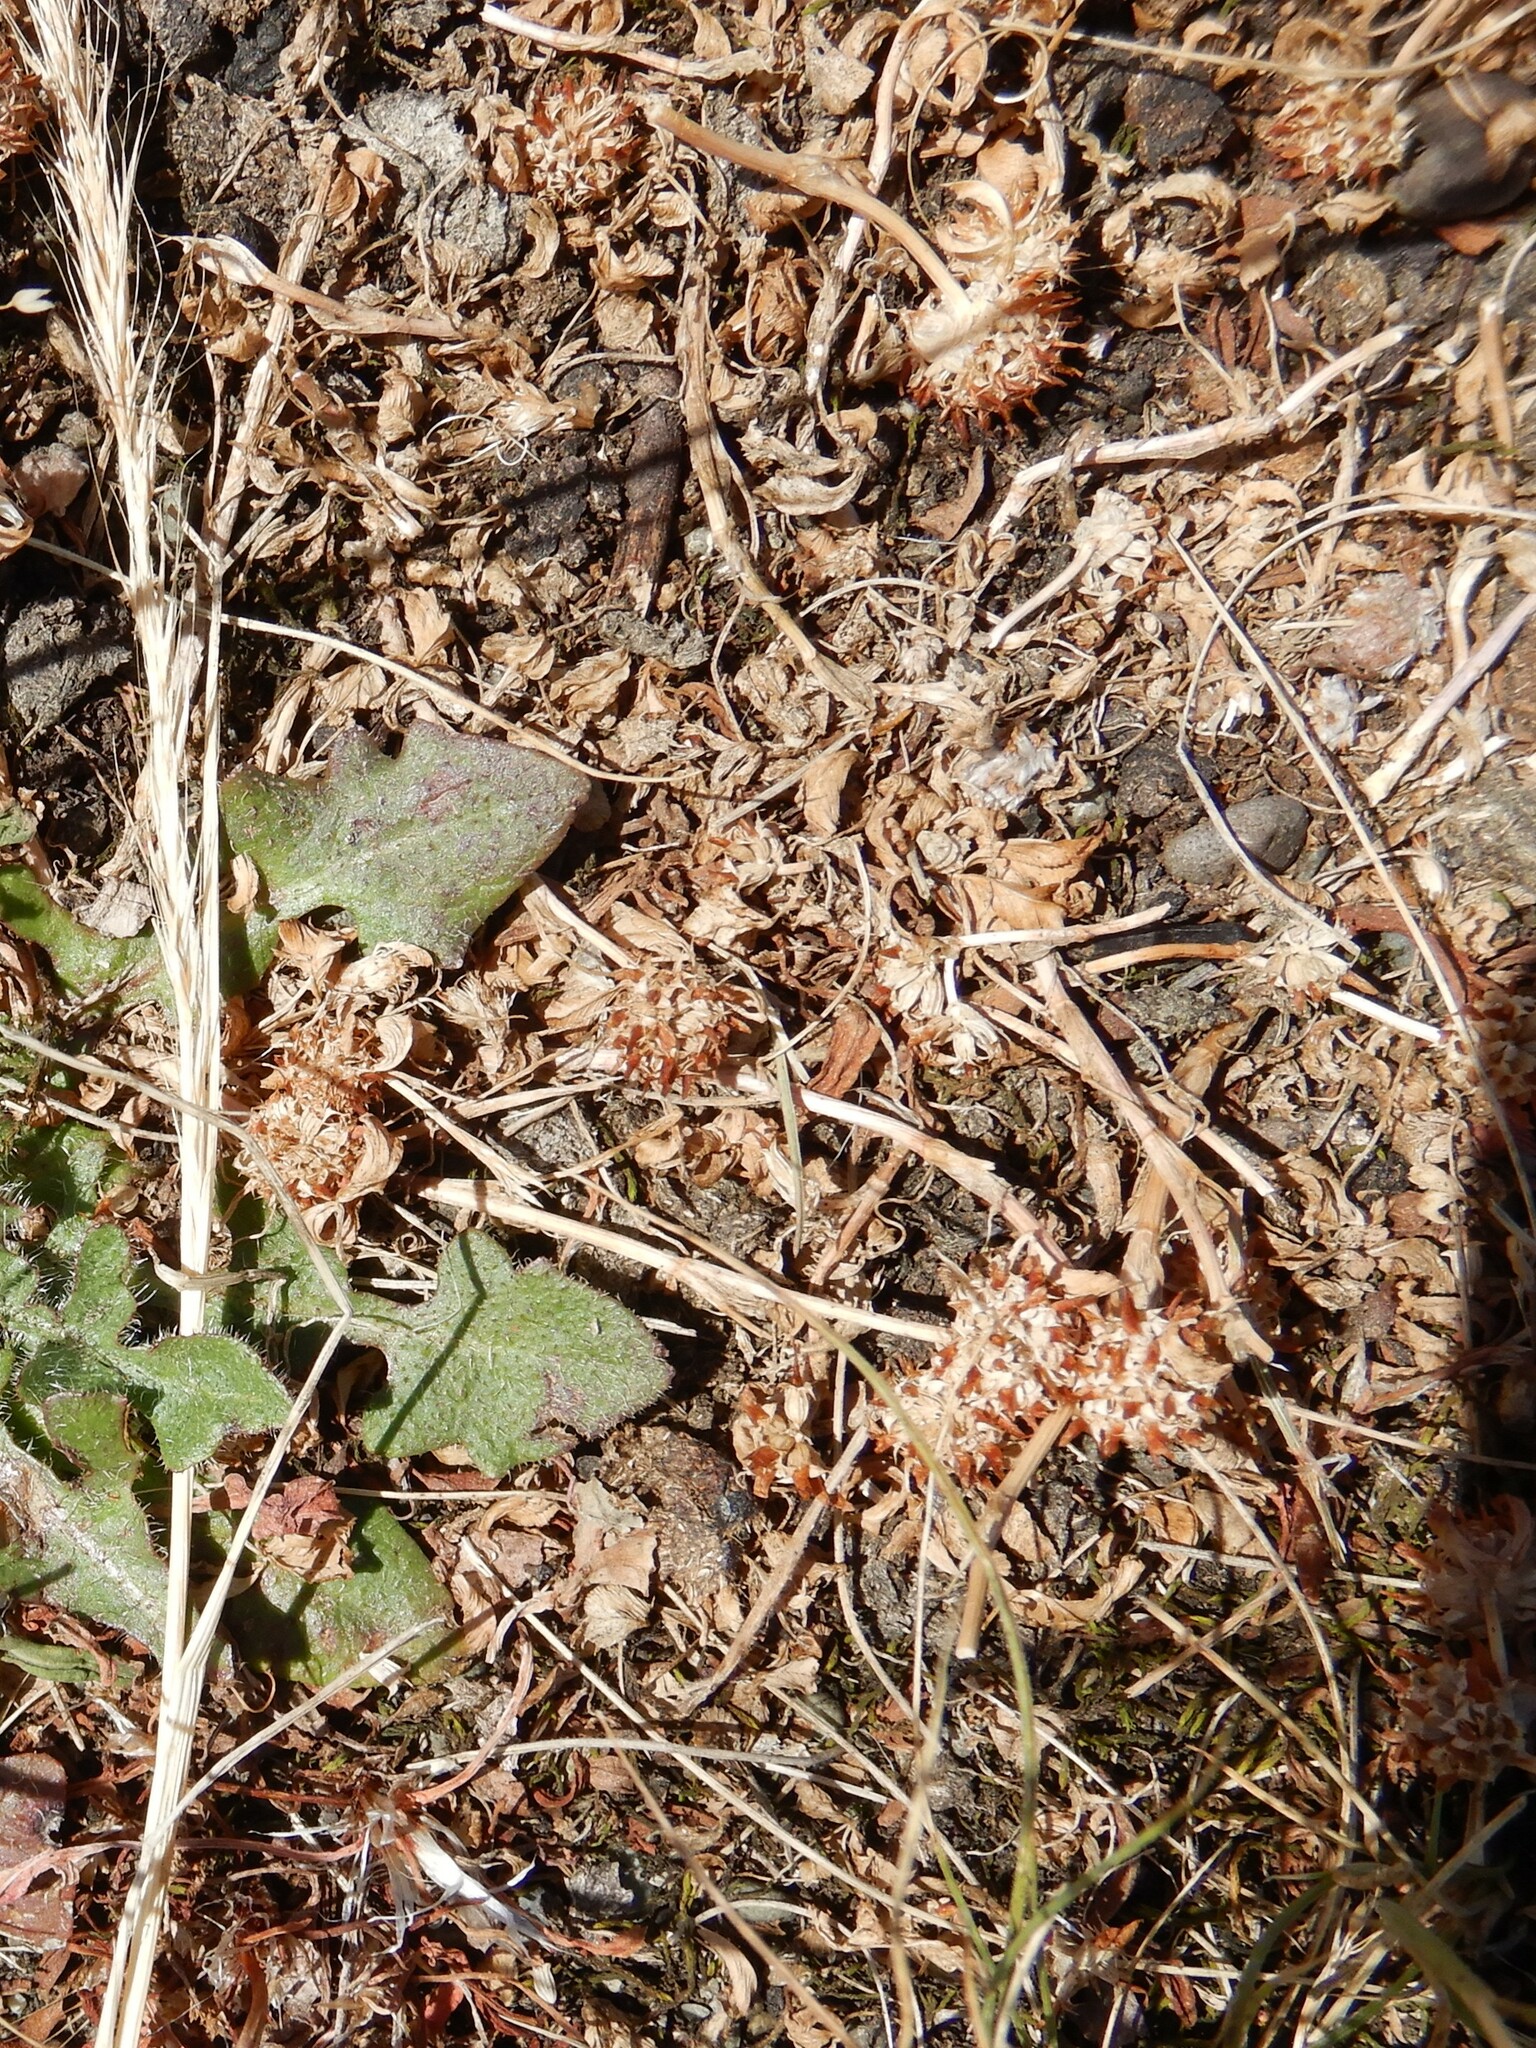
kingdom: Plantae
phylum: Tracheophyta
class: Magnoliopsida
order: Fabales
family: Fabaceae
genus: Trifolium
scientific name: Trifolium glomeratum
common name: Clustered clover
